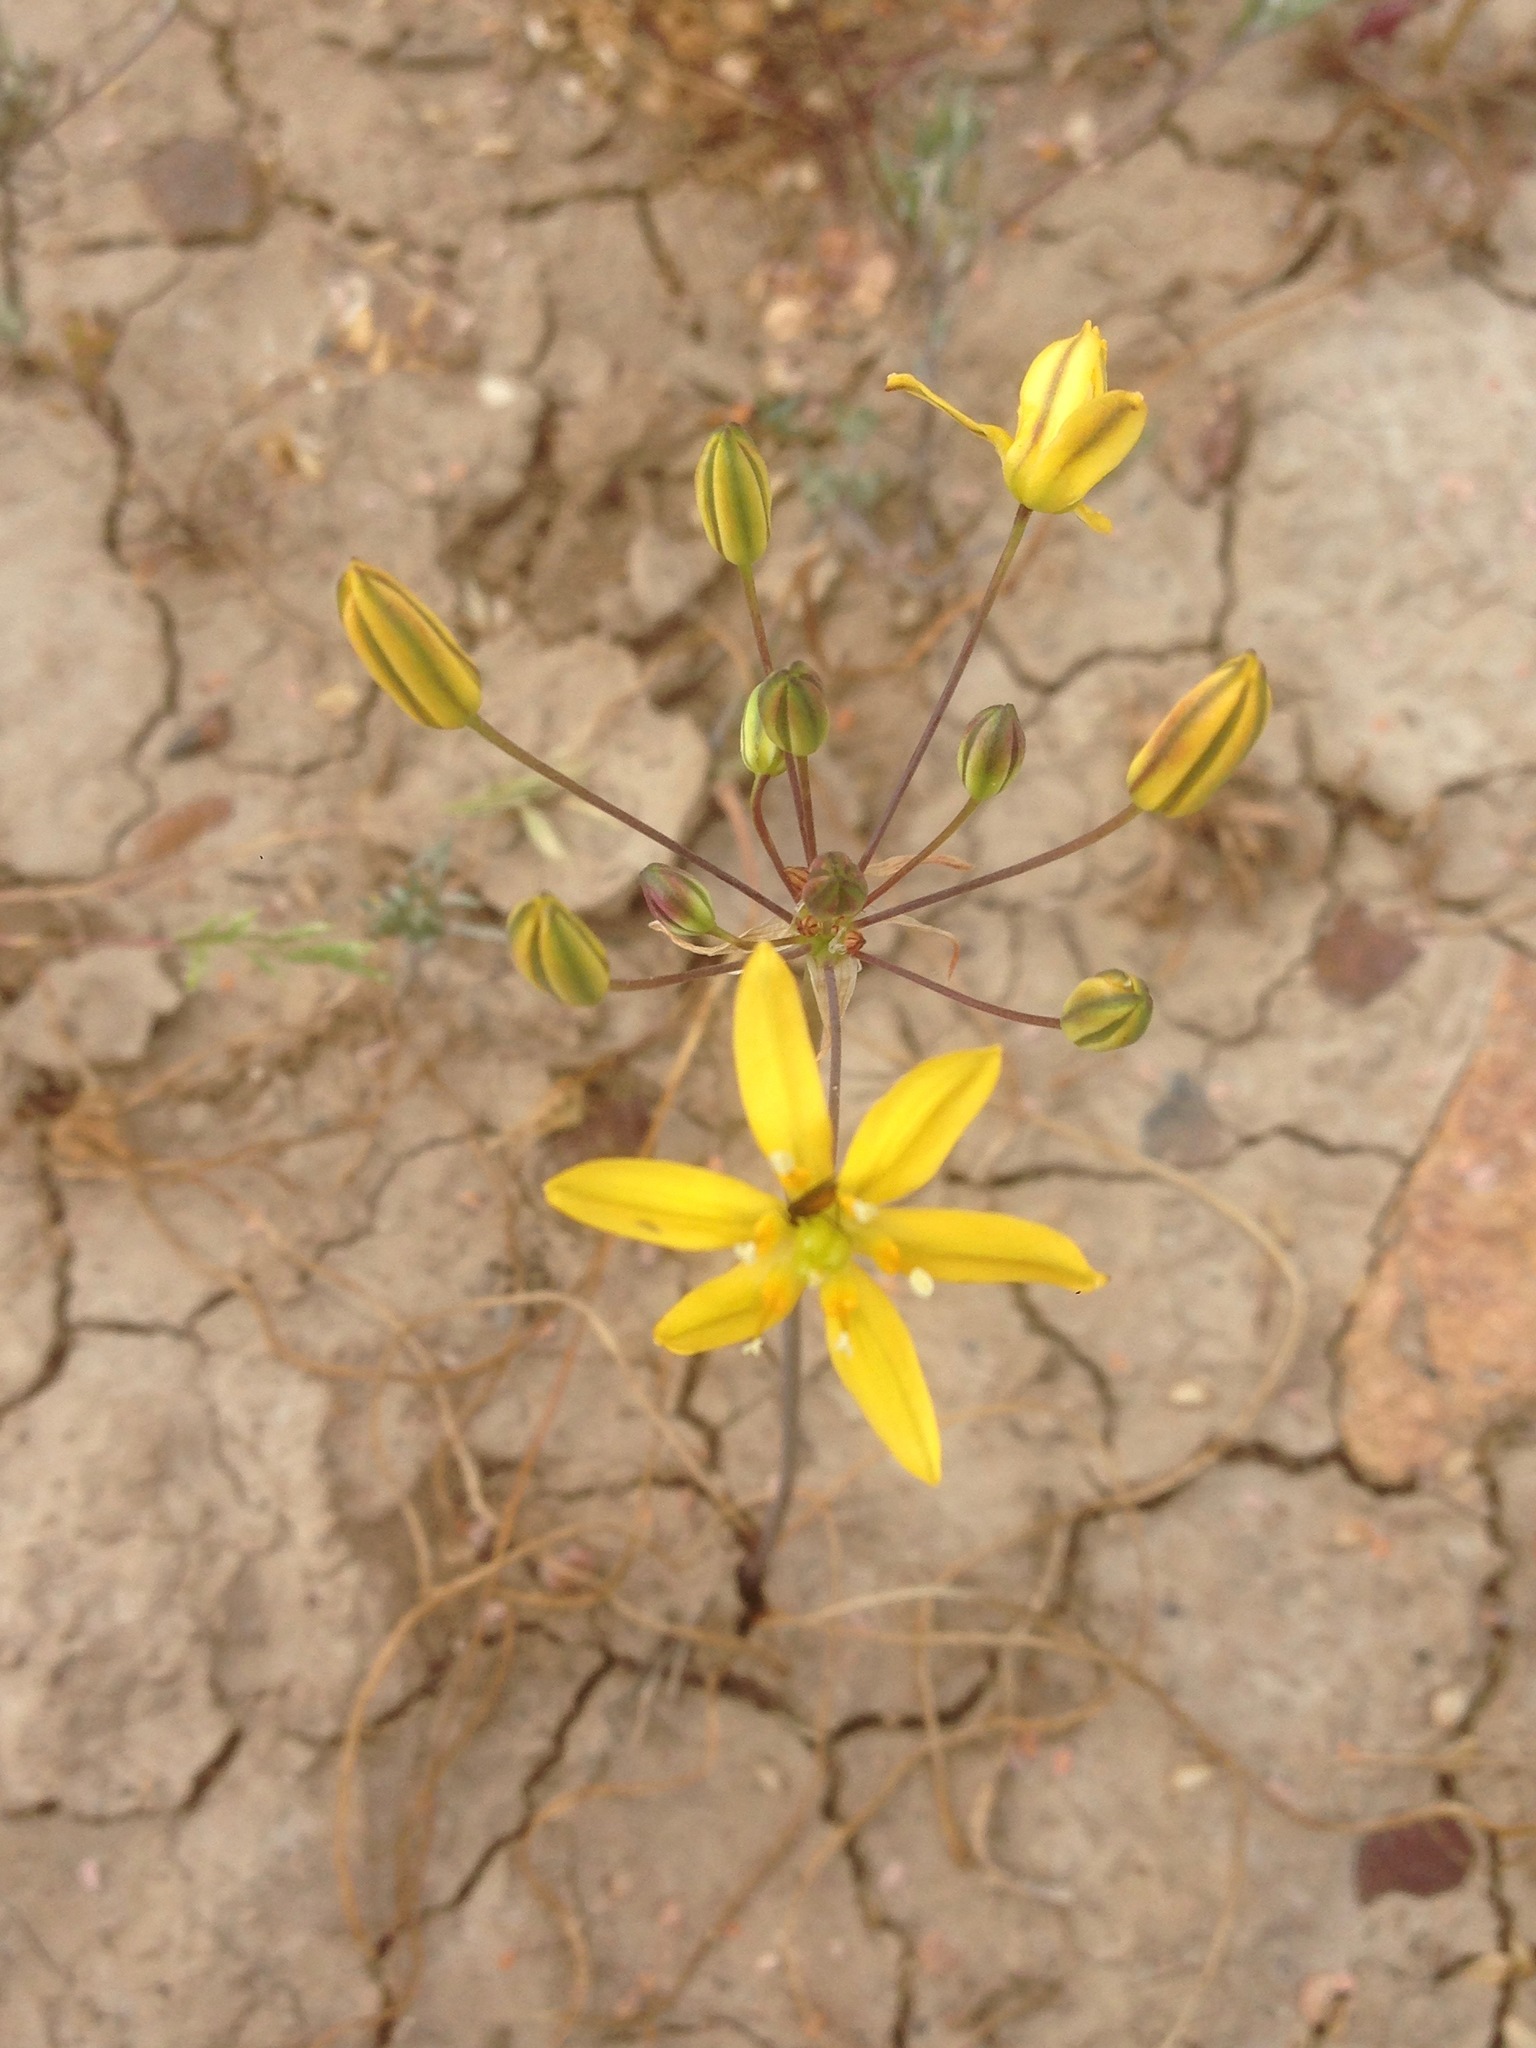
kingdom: Plantae
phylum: Tracheophyta
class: Liliopsida
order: Asparagales
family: Asparagaceae
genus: Bloomeria
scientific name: Bloomeria clevelandii
